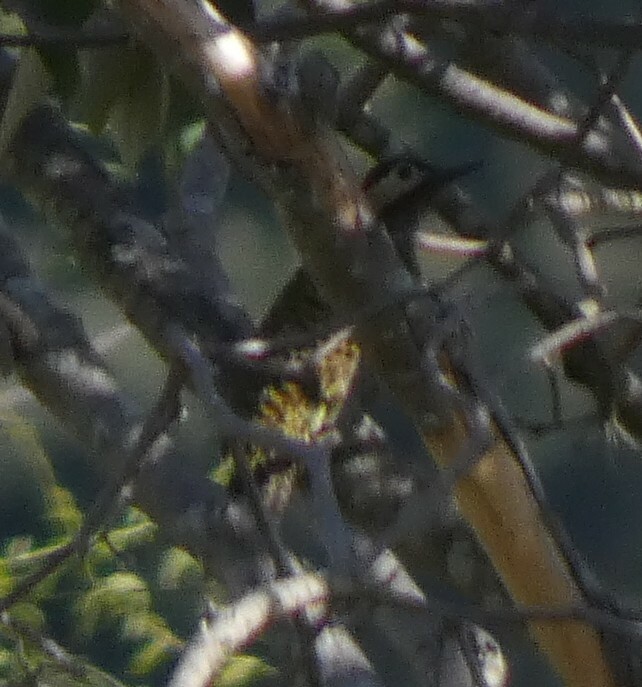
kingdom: Animalia
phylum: Chordata
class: Aves
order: Piciformes
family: Picidae
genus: Colaptes
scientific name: Colaptes melanochloros
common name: Green-barred woodpecker
